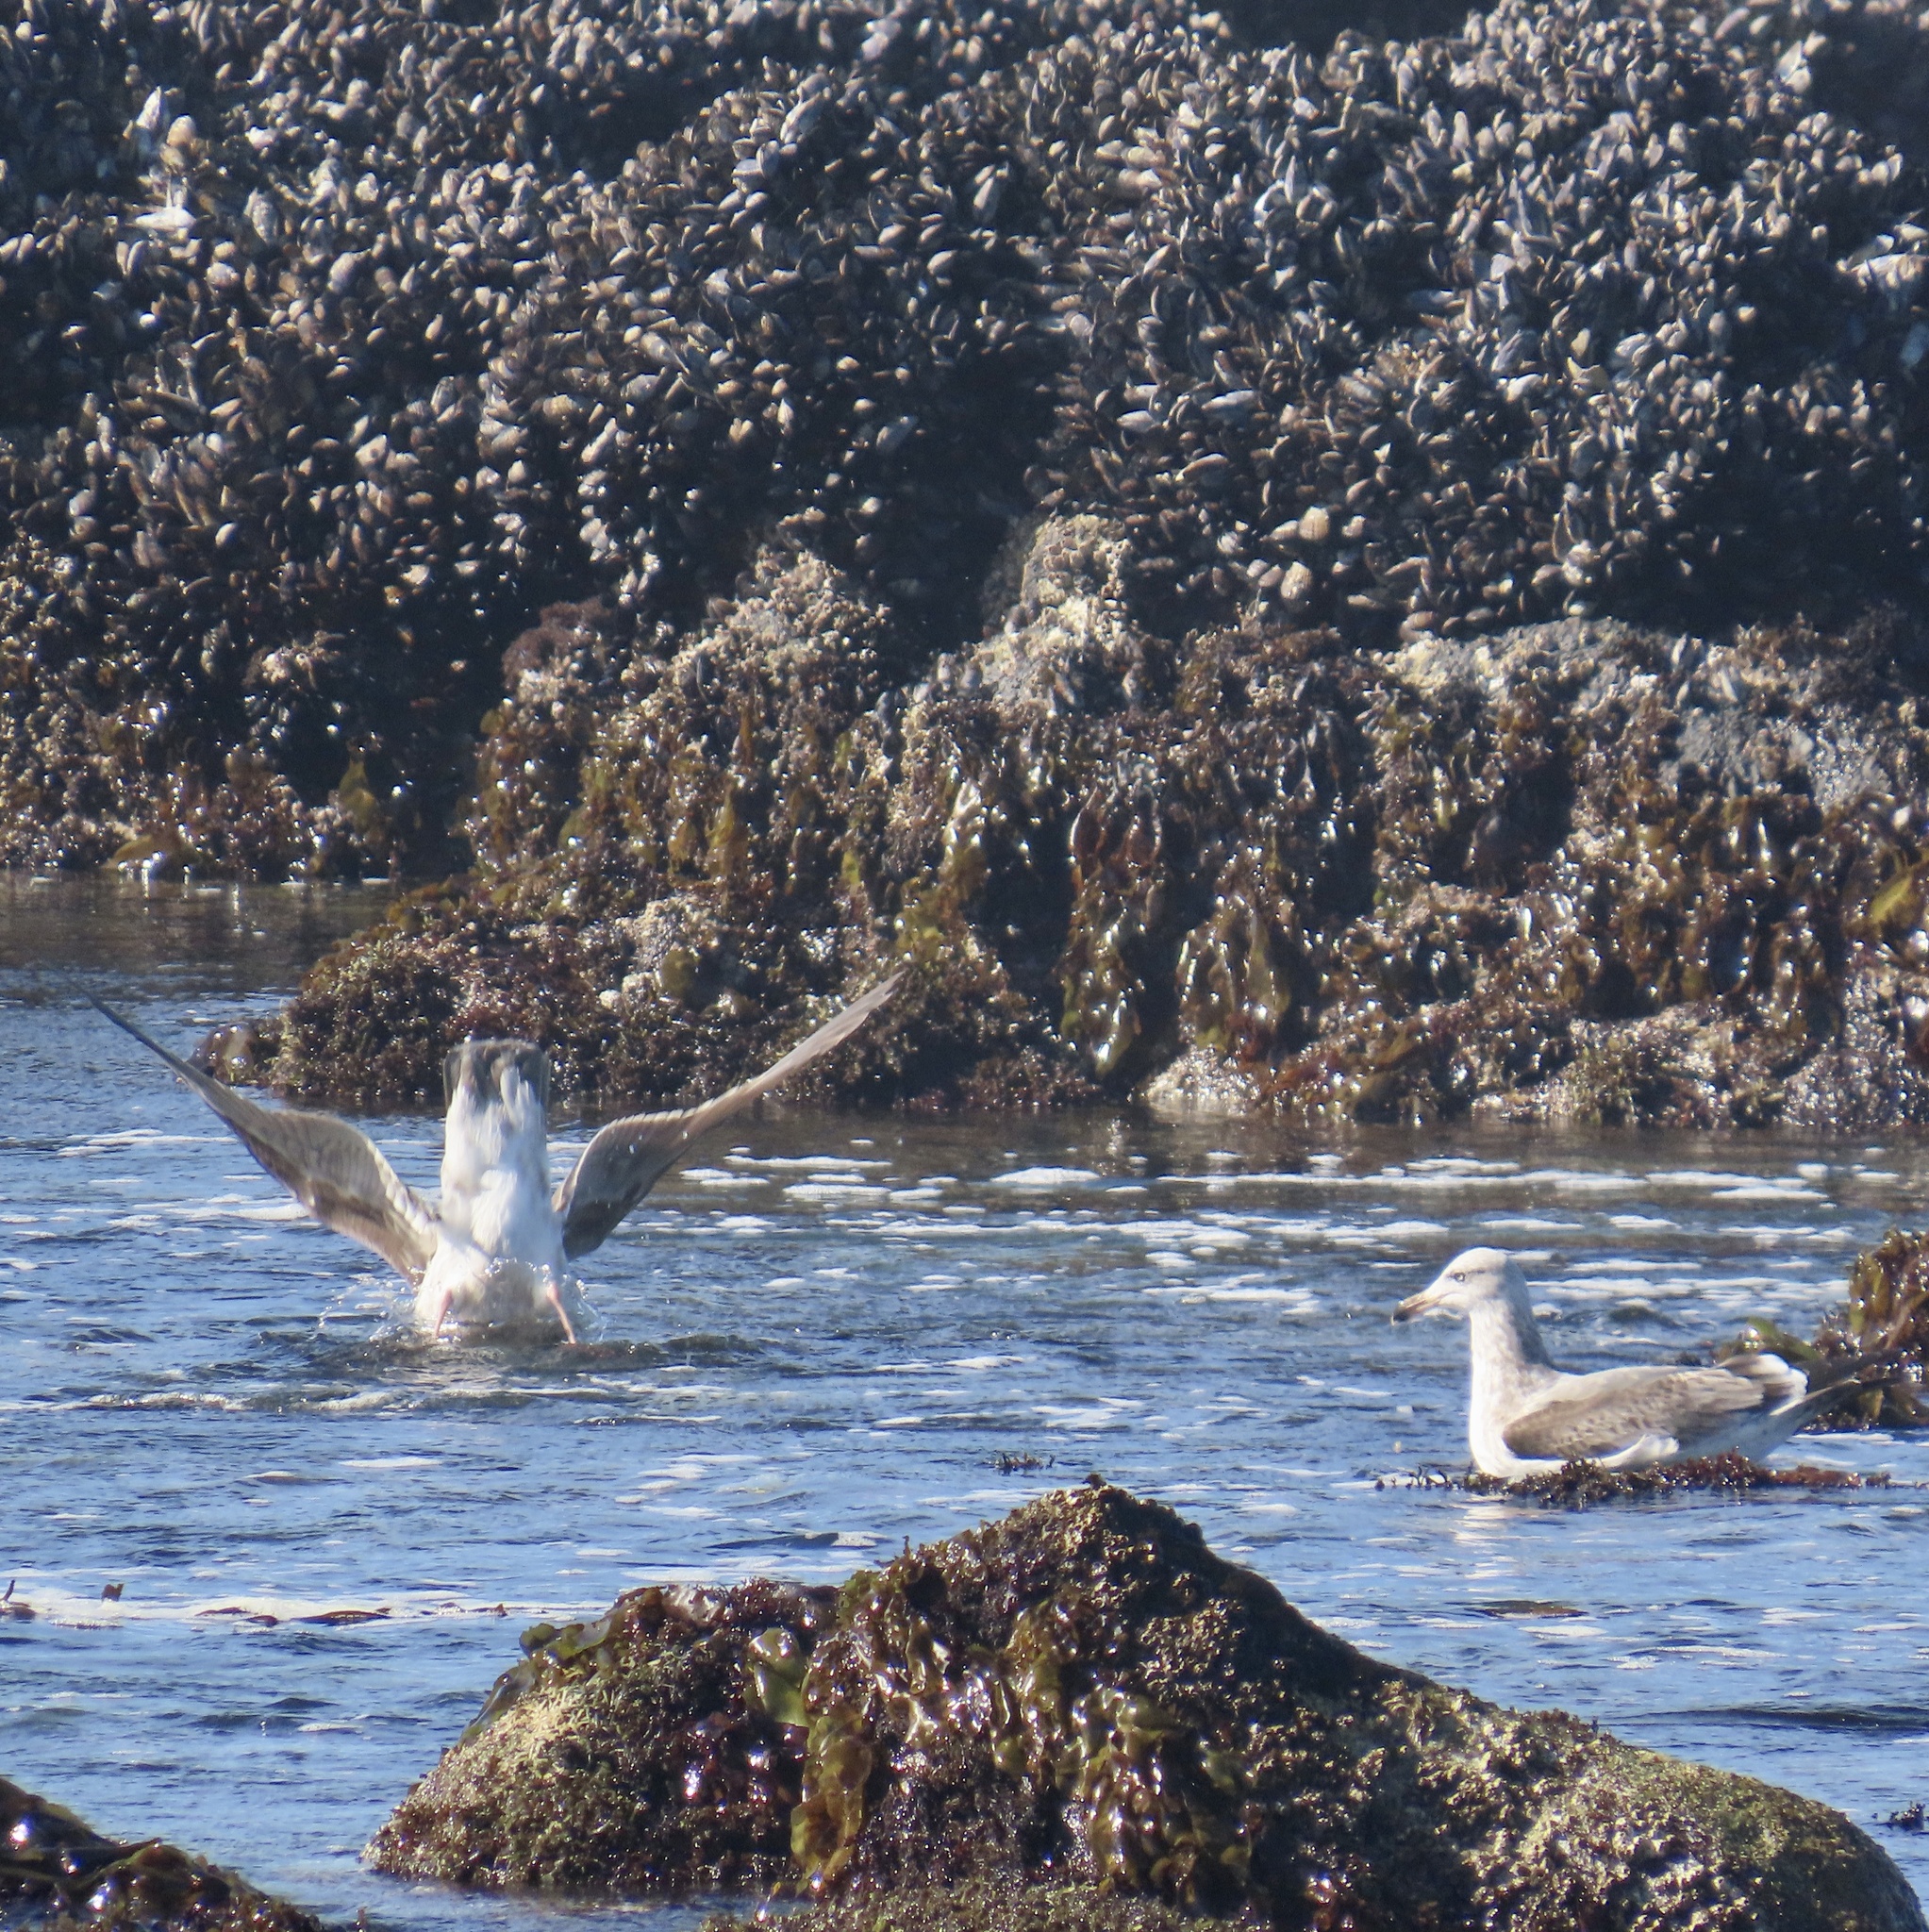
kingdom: Animalia
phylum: Chordata
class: Aves
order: Charadriiformes
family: Laridae
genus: Larus
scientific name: Larus occidentalis
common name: Western gull
